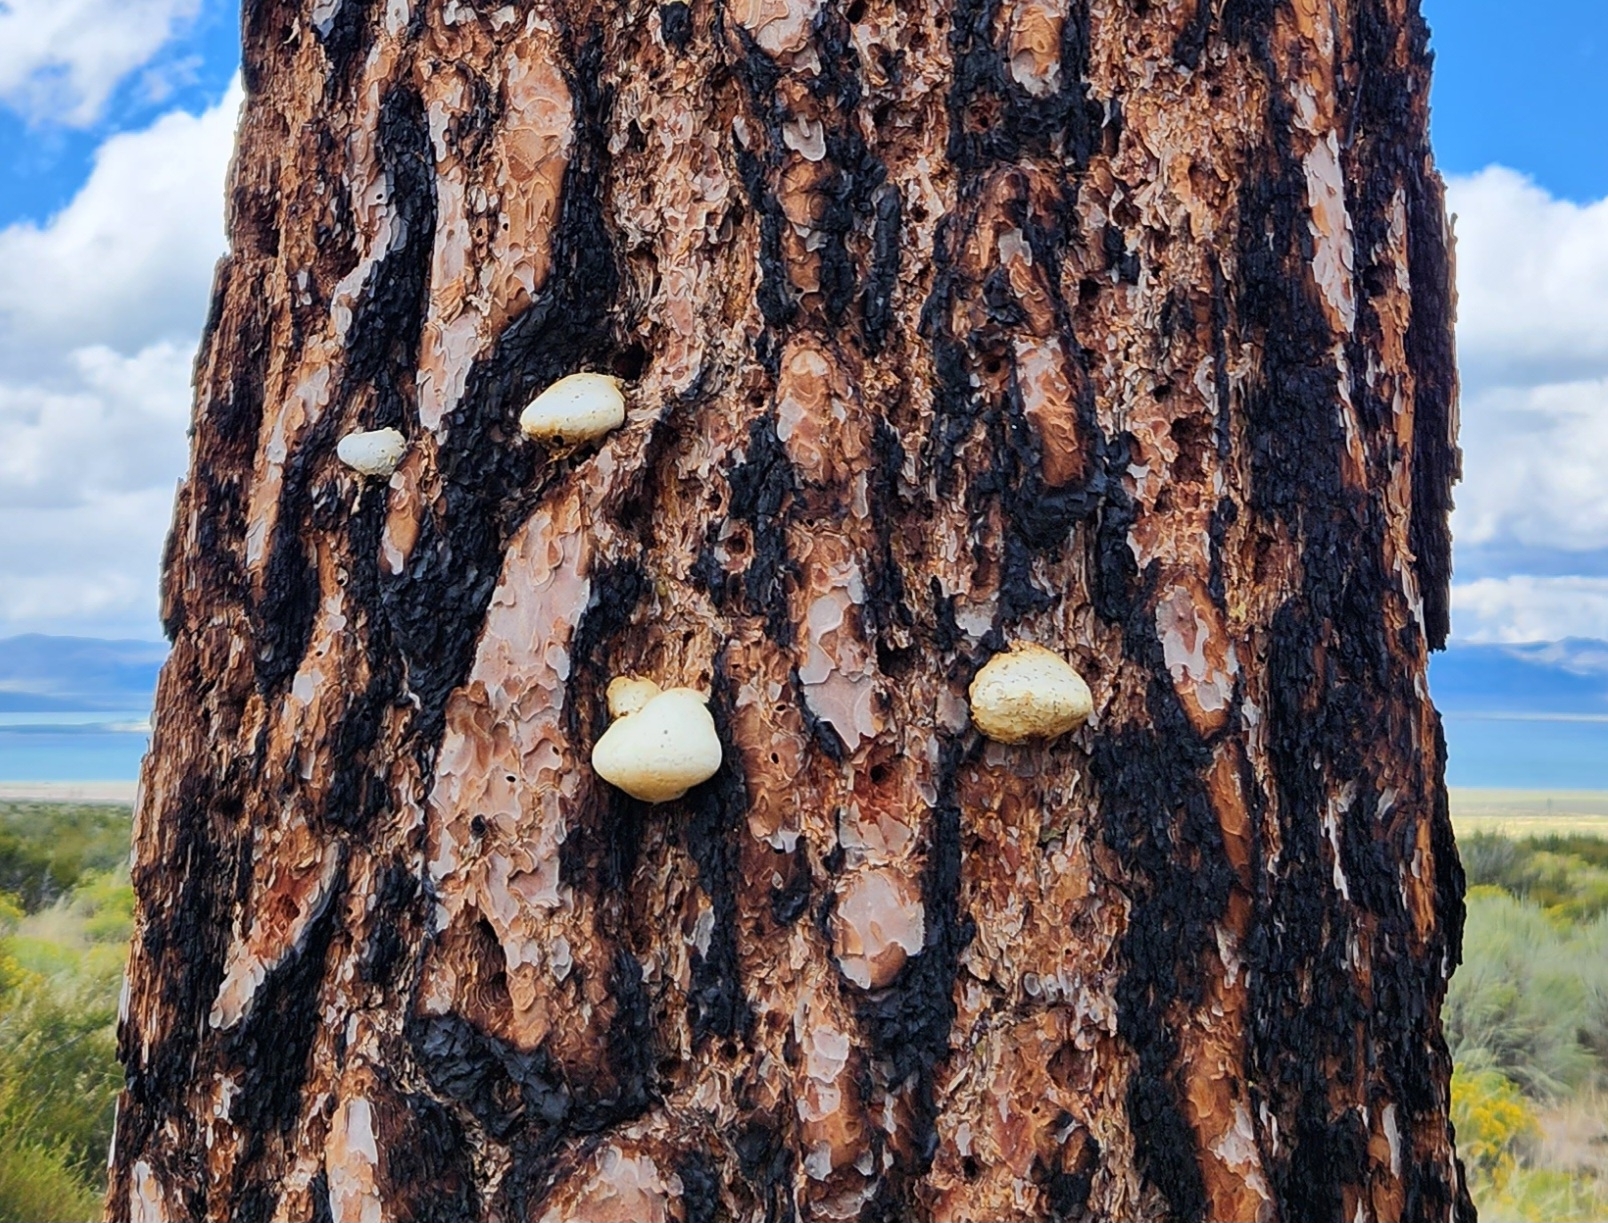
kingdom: Fungi
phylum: Basidiomycota
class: Agaricomycetes
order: Polyporales
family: Polyporaceae
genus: Cryptoporus
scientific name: Cryptoporus volvatus
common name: Veiled polypore
